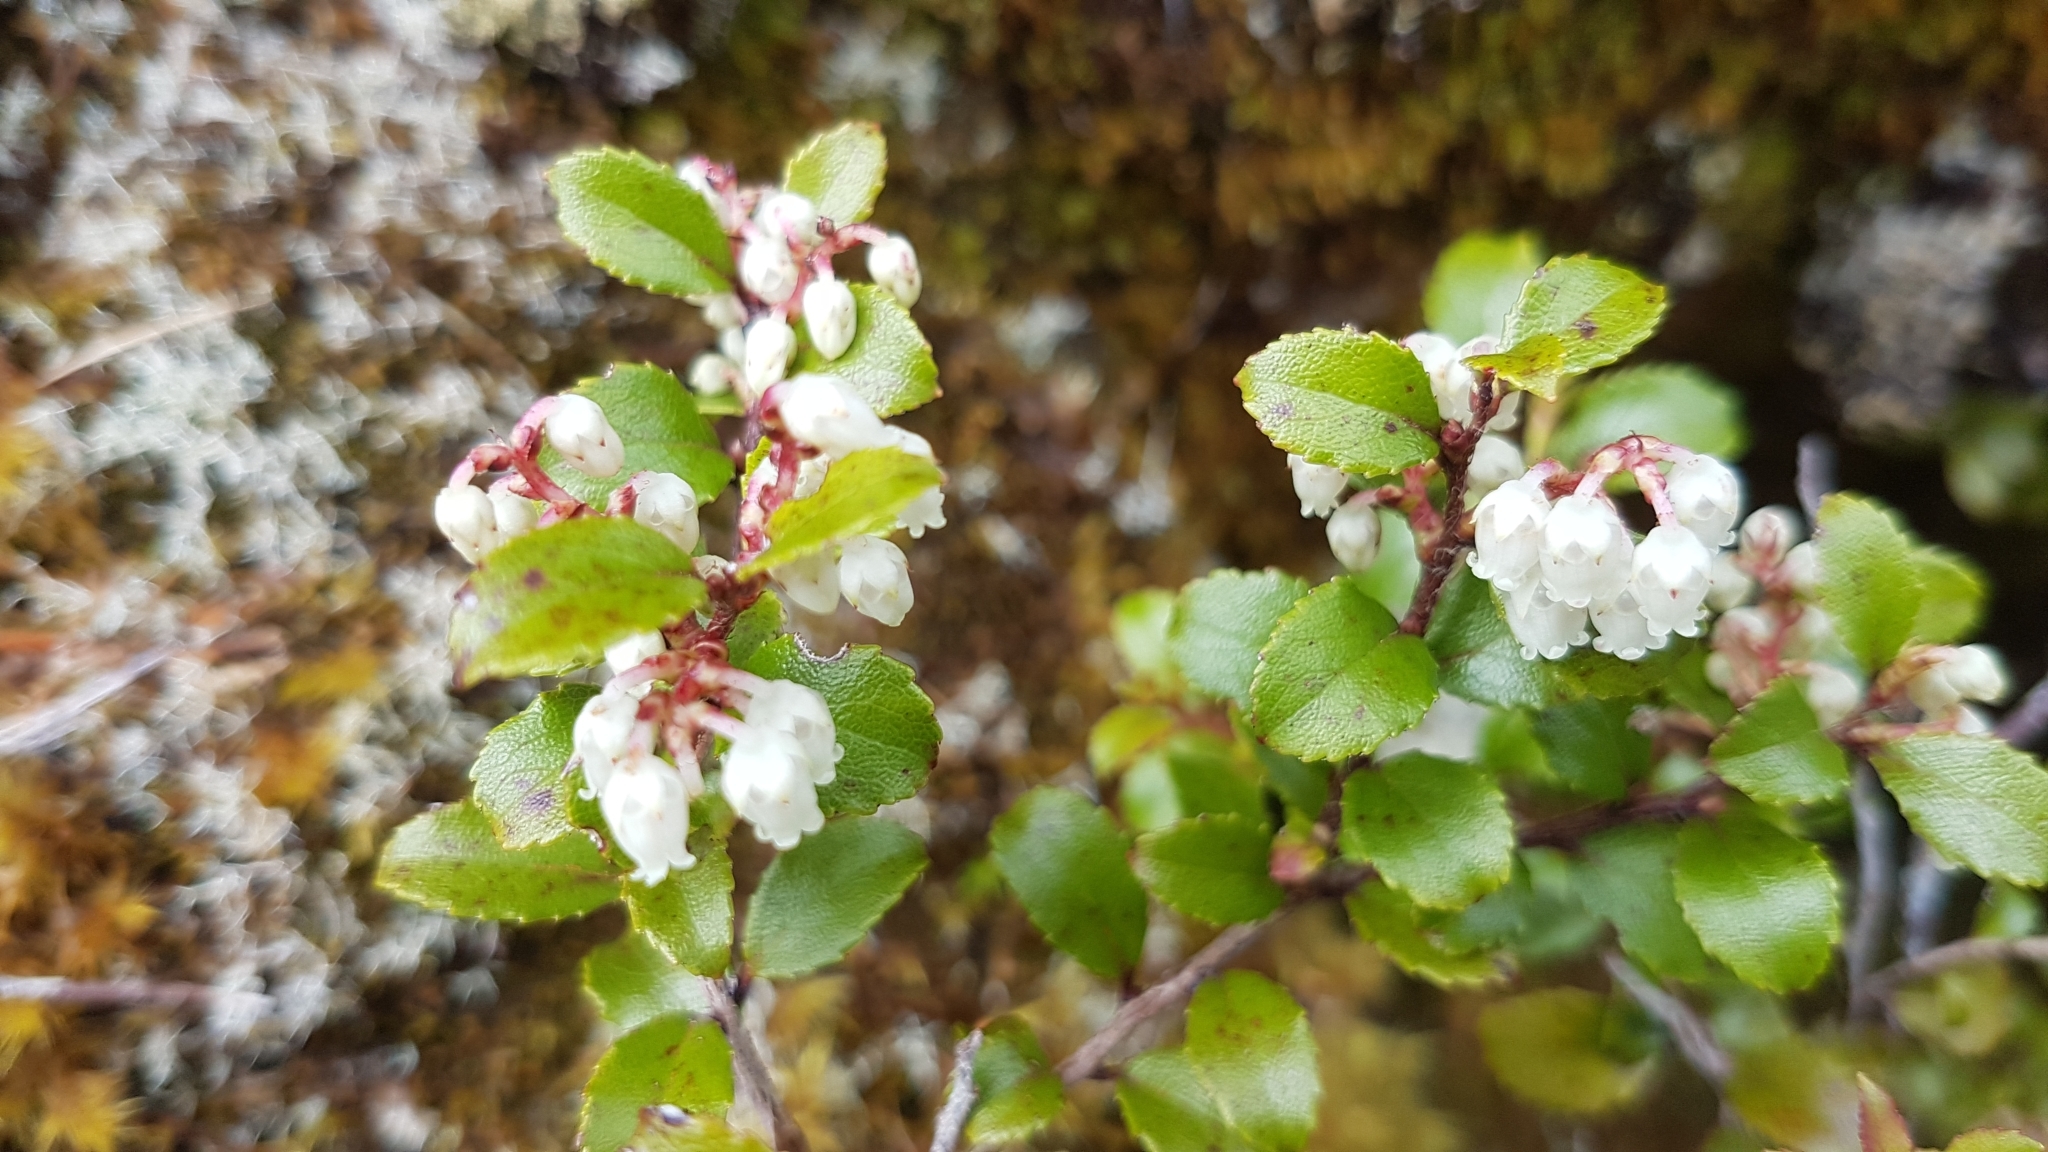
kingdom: Plantae
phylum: Tracheophyta
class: Magnoliopsida
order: Ericales
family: Ericaceae
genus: Gaultheria
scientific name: Gaultheria antipoda
